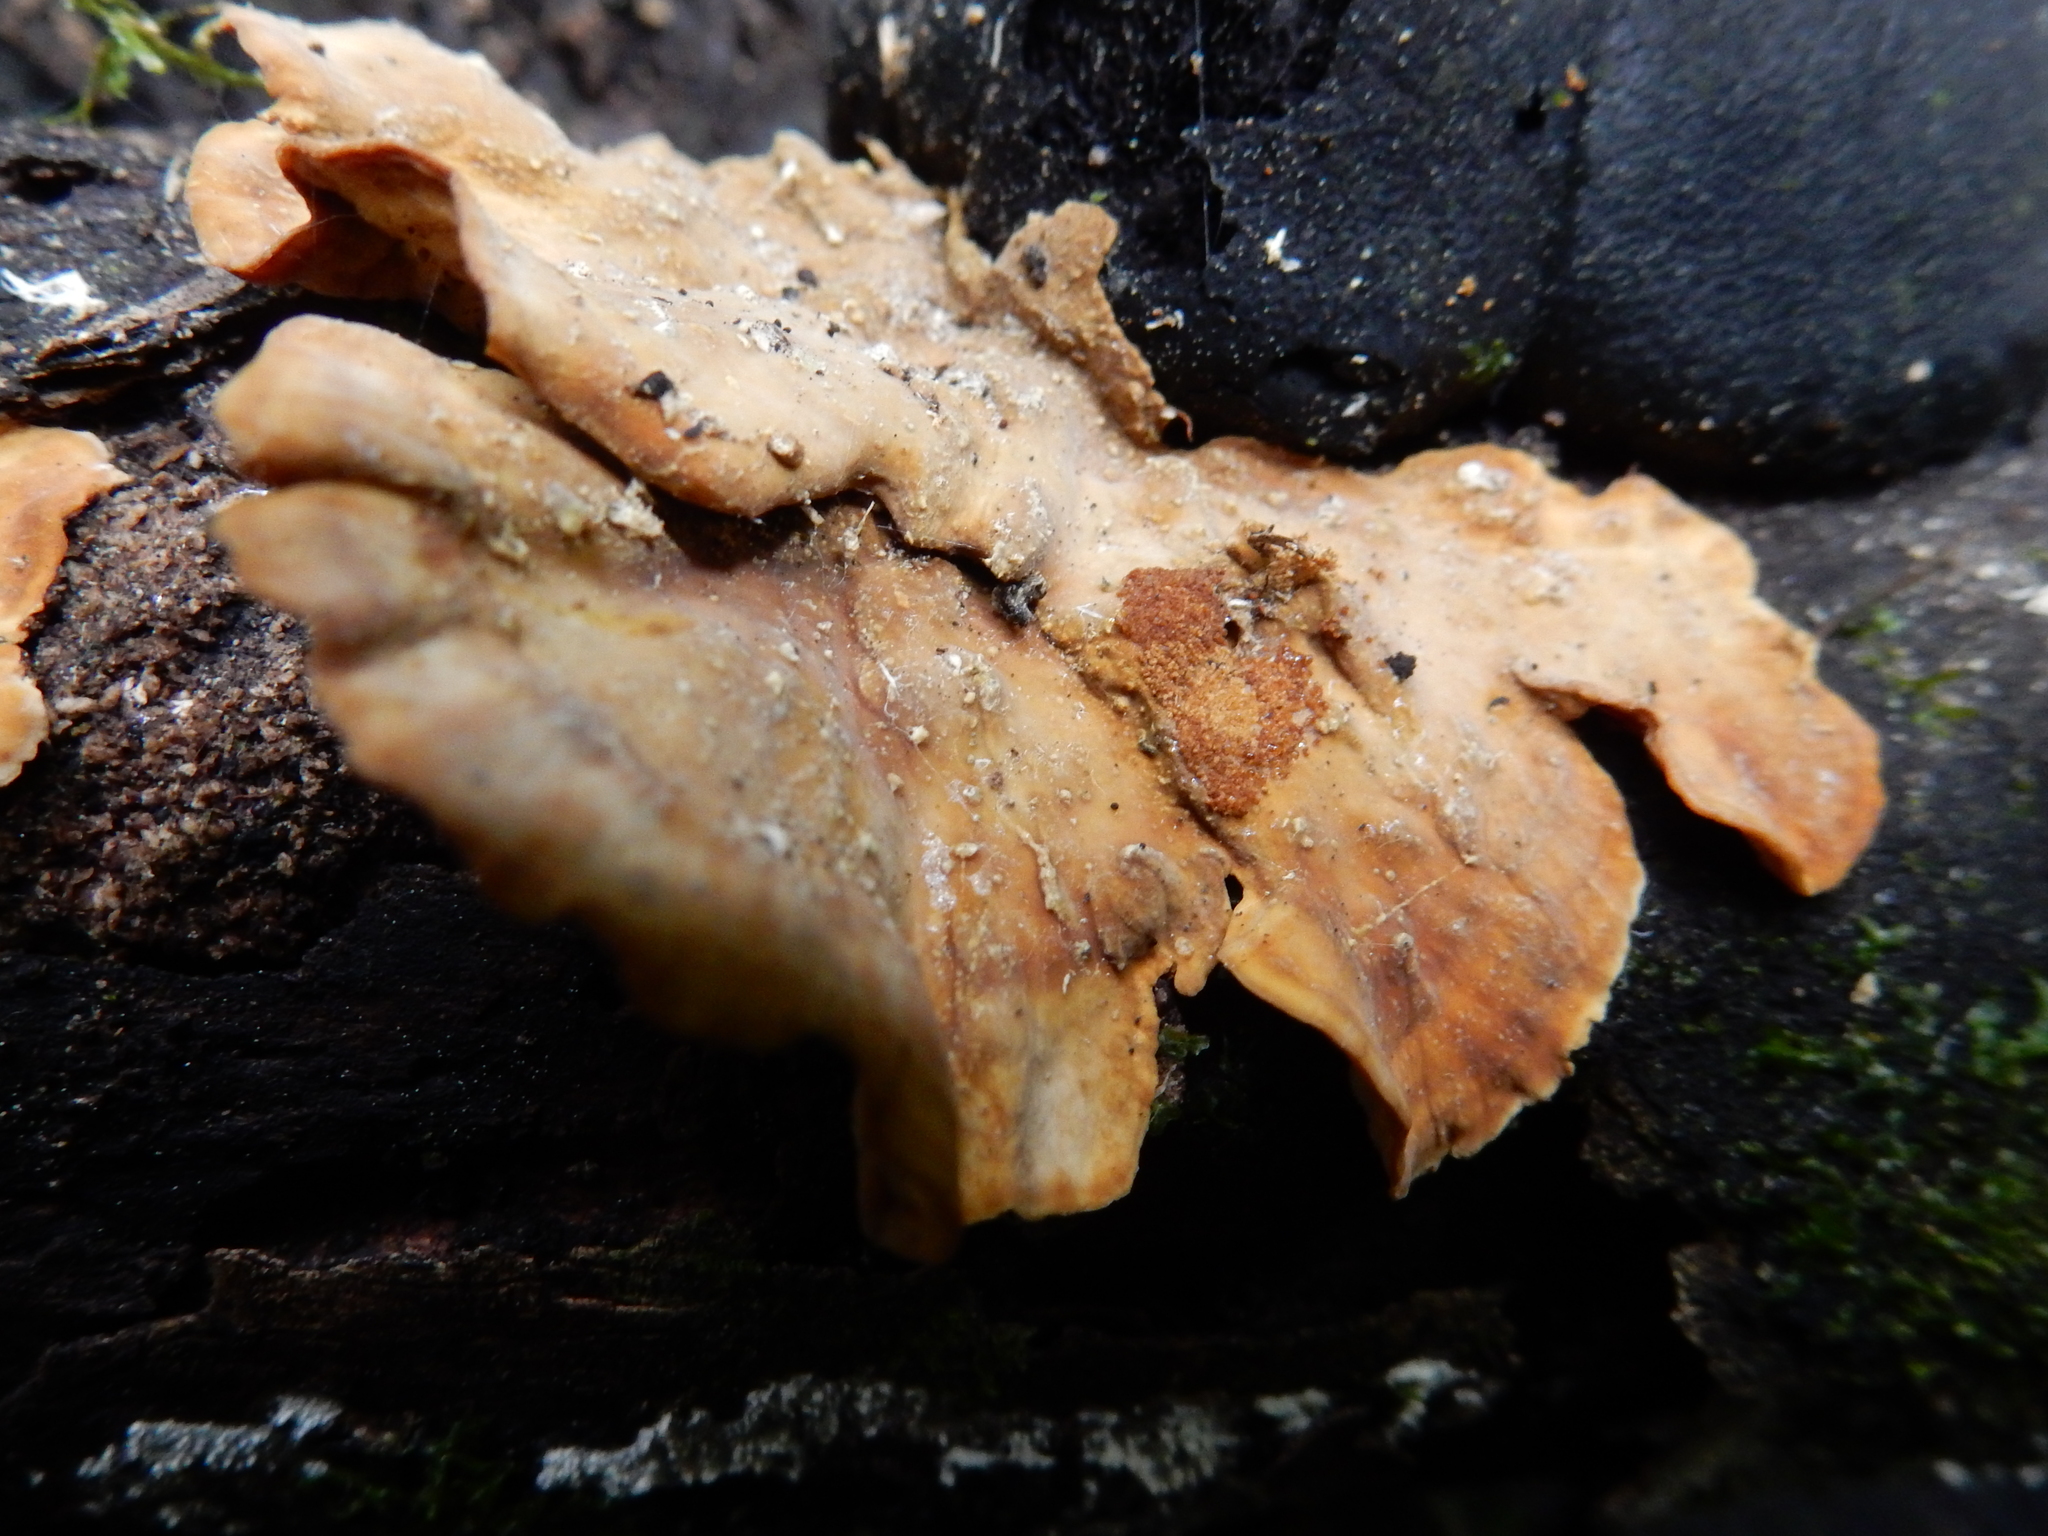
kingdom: Fungi
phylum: Basidiomycota
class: Agaricomycetes
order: Russulales
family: Stereaceae
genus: Stereum
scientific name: Stereum versicolor
